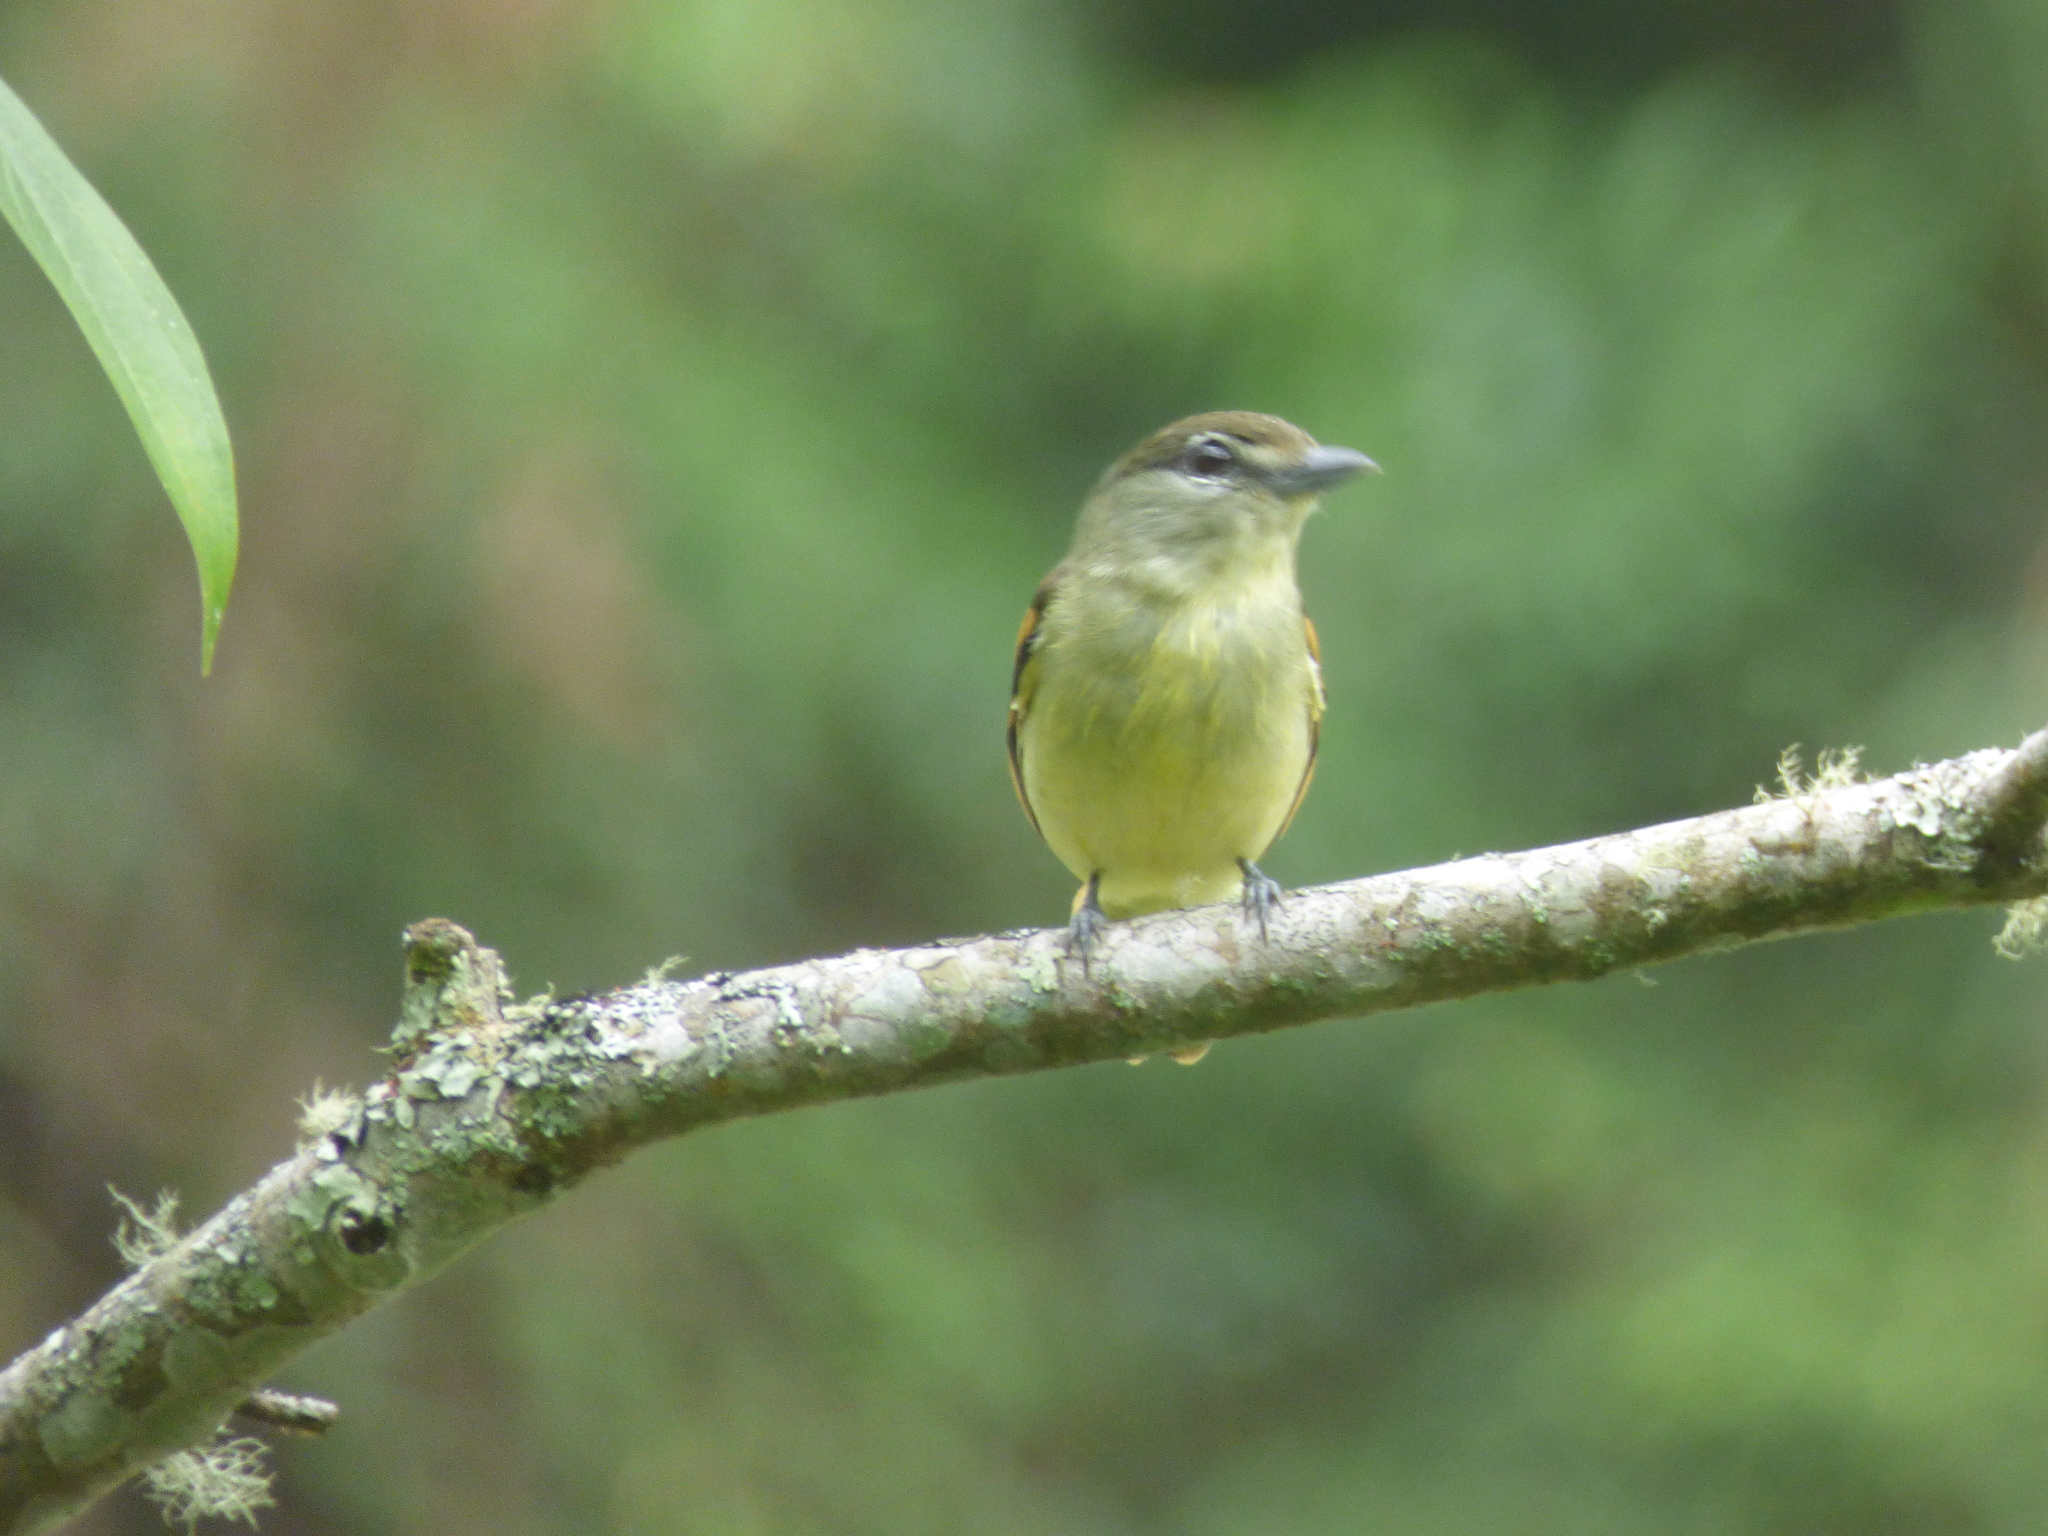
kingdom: Animalia
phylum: Chordata
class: Aves
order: Passeriformes
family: Cotingidae
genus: Pachyramphus
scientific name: Pachyramphus polychopterus
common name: White-winged becard
